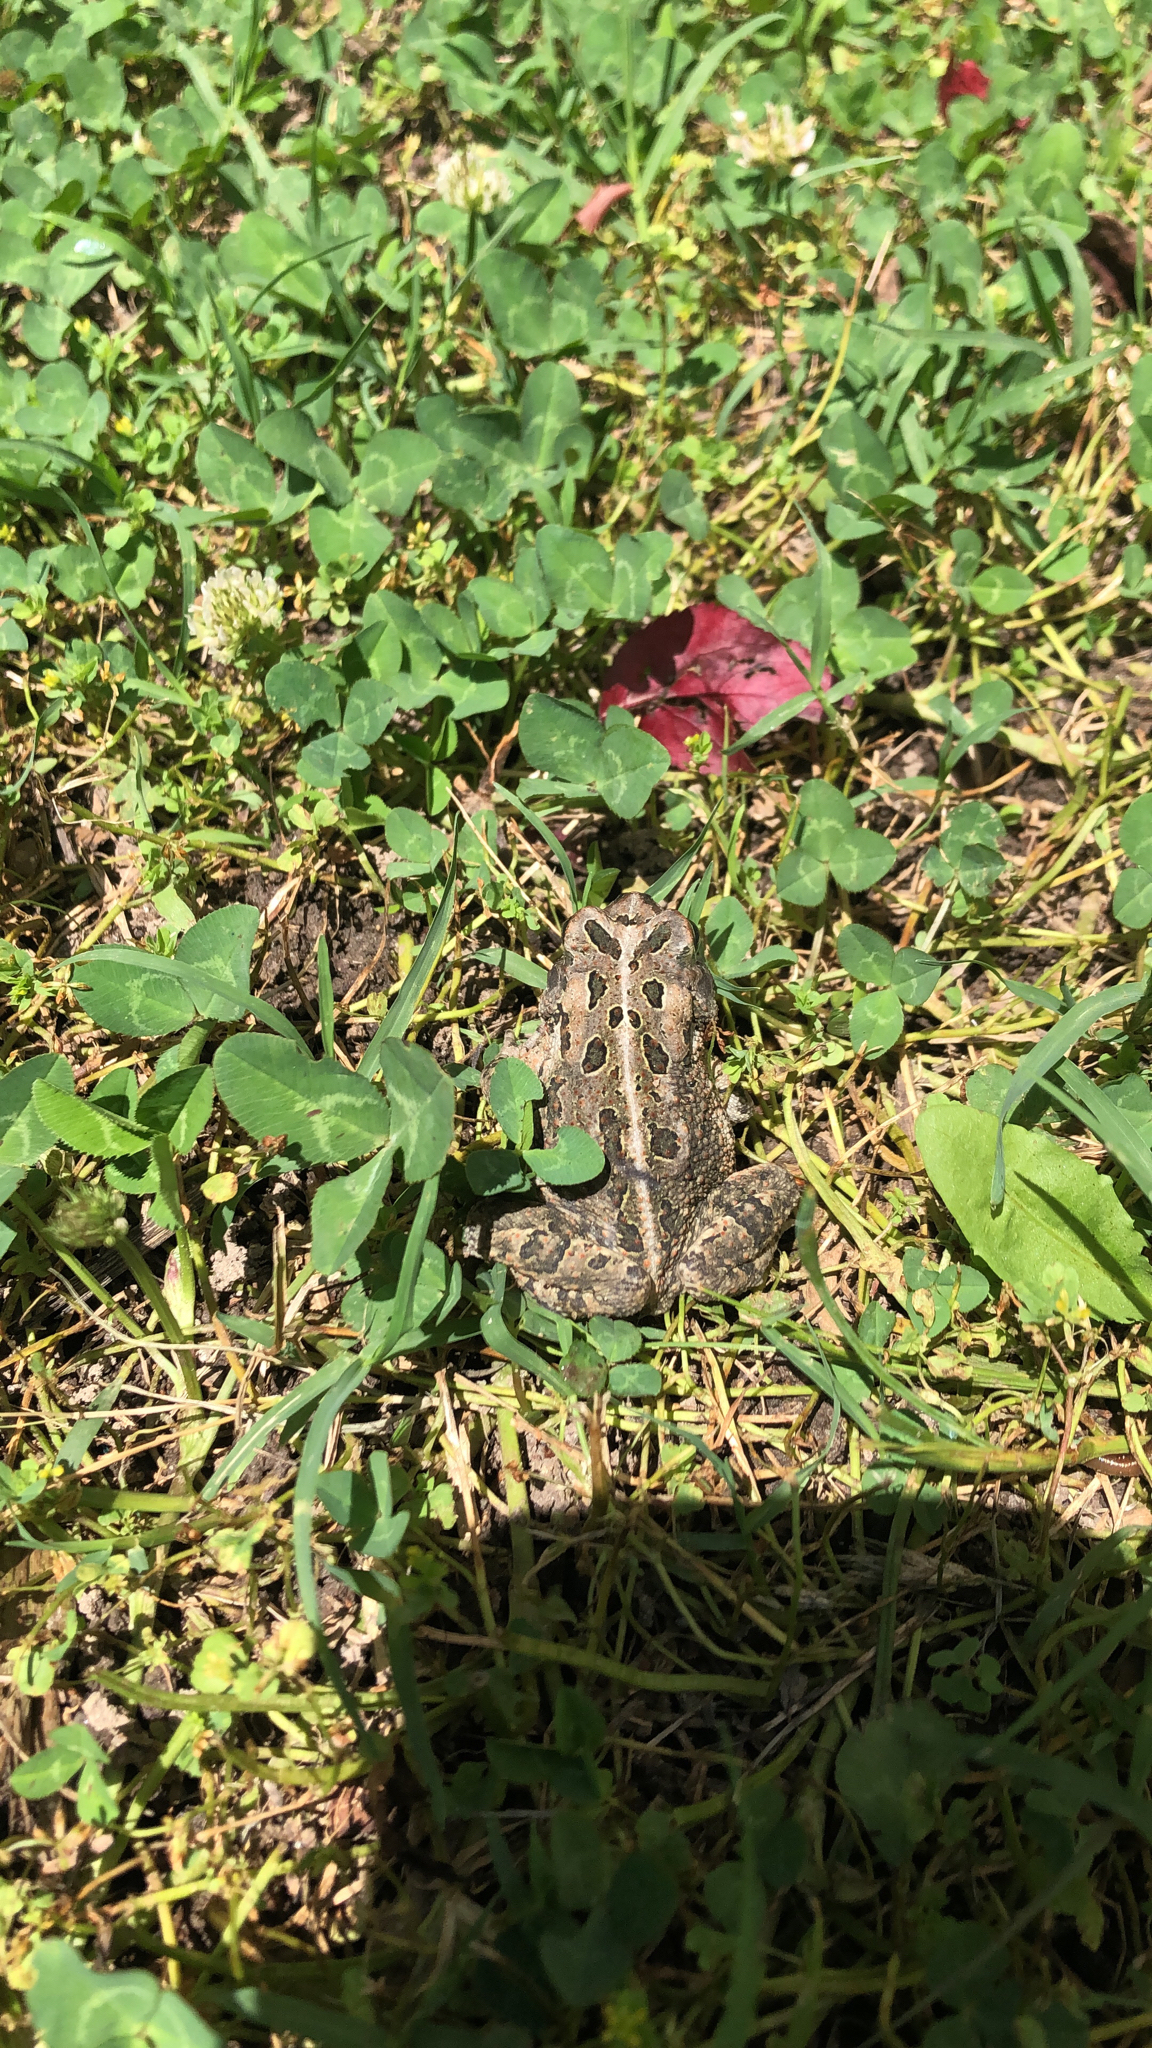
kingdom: Animalia
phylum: Chordata
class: Amphibia
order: Anura
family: Bufonidae
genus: Anaxyrus
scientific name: Anaxyrus fowleri
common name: Fowler's toad
